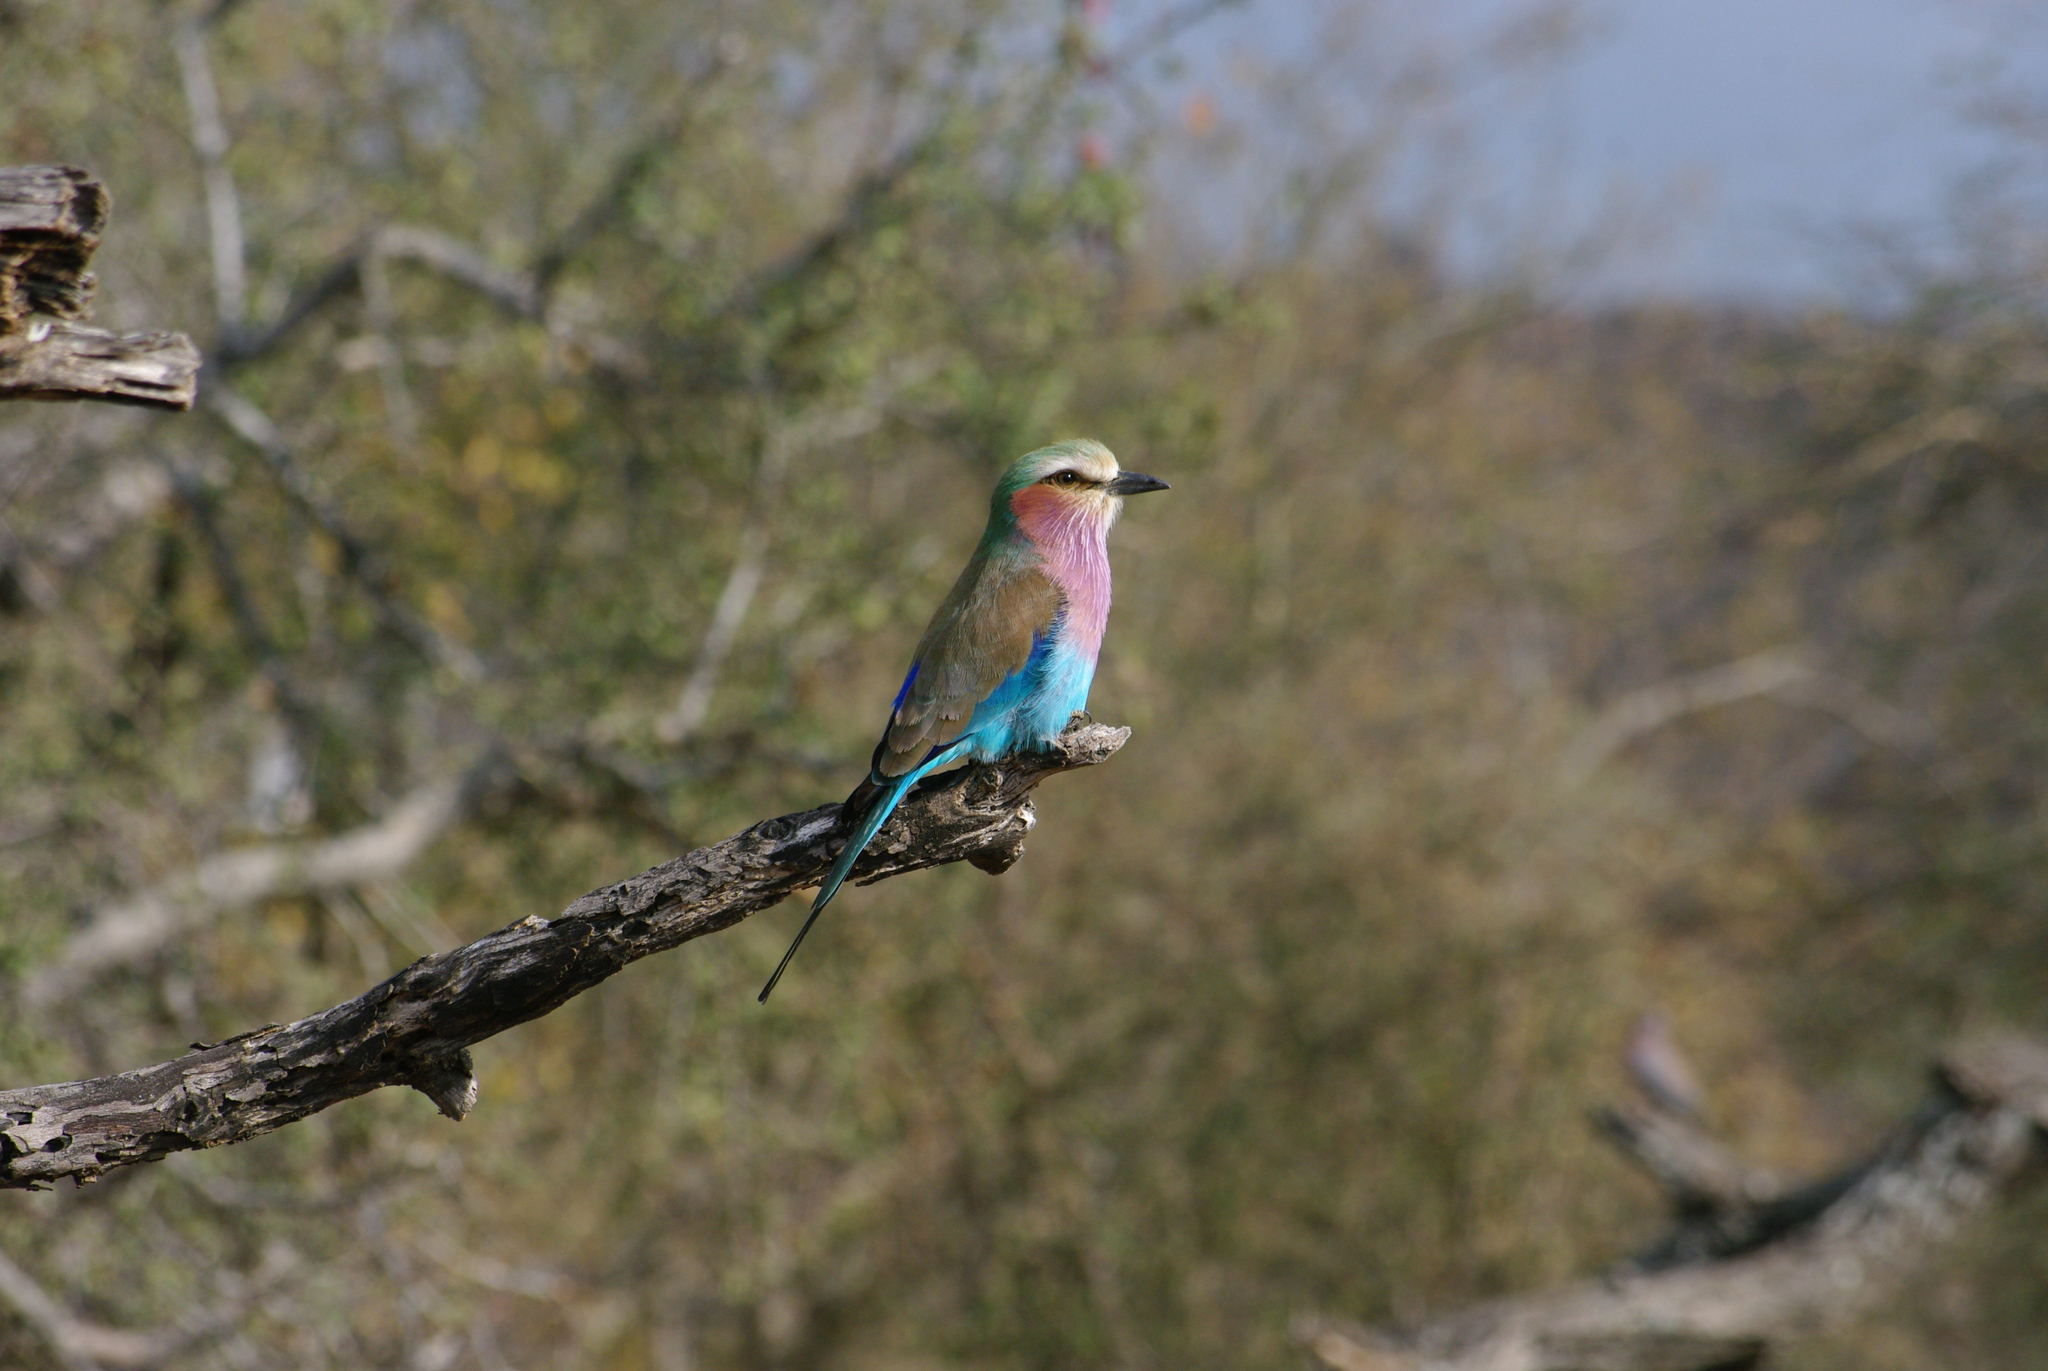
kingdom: Animalia
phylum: Chordata
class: Aves
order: Coraciiformes
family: Coraciidae
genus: Coracias
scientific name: Coracias caudatus
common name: Lilac-breasted roller
